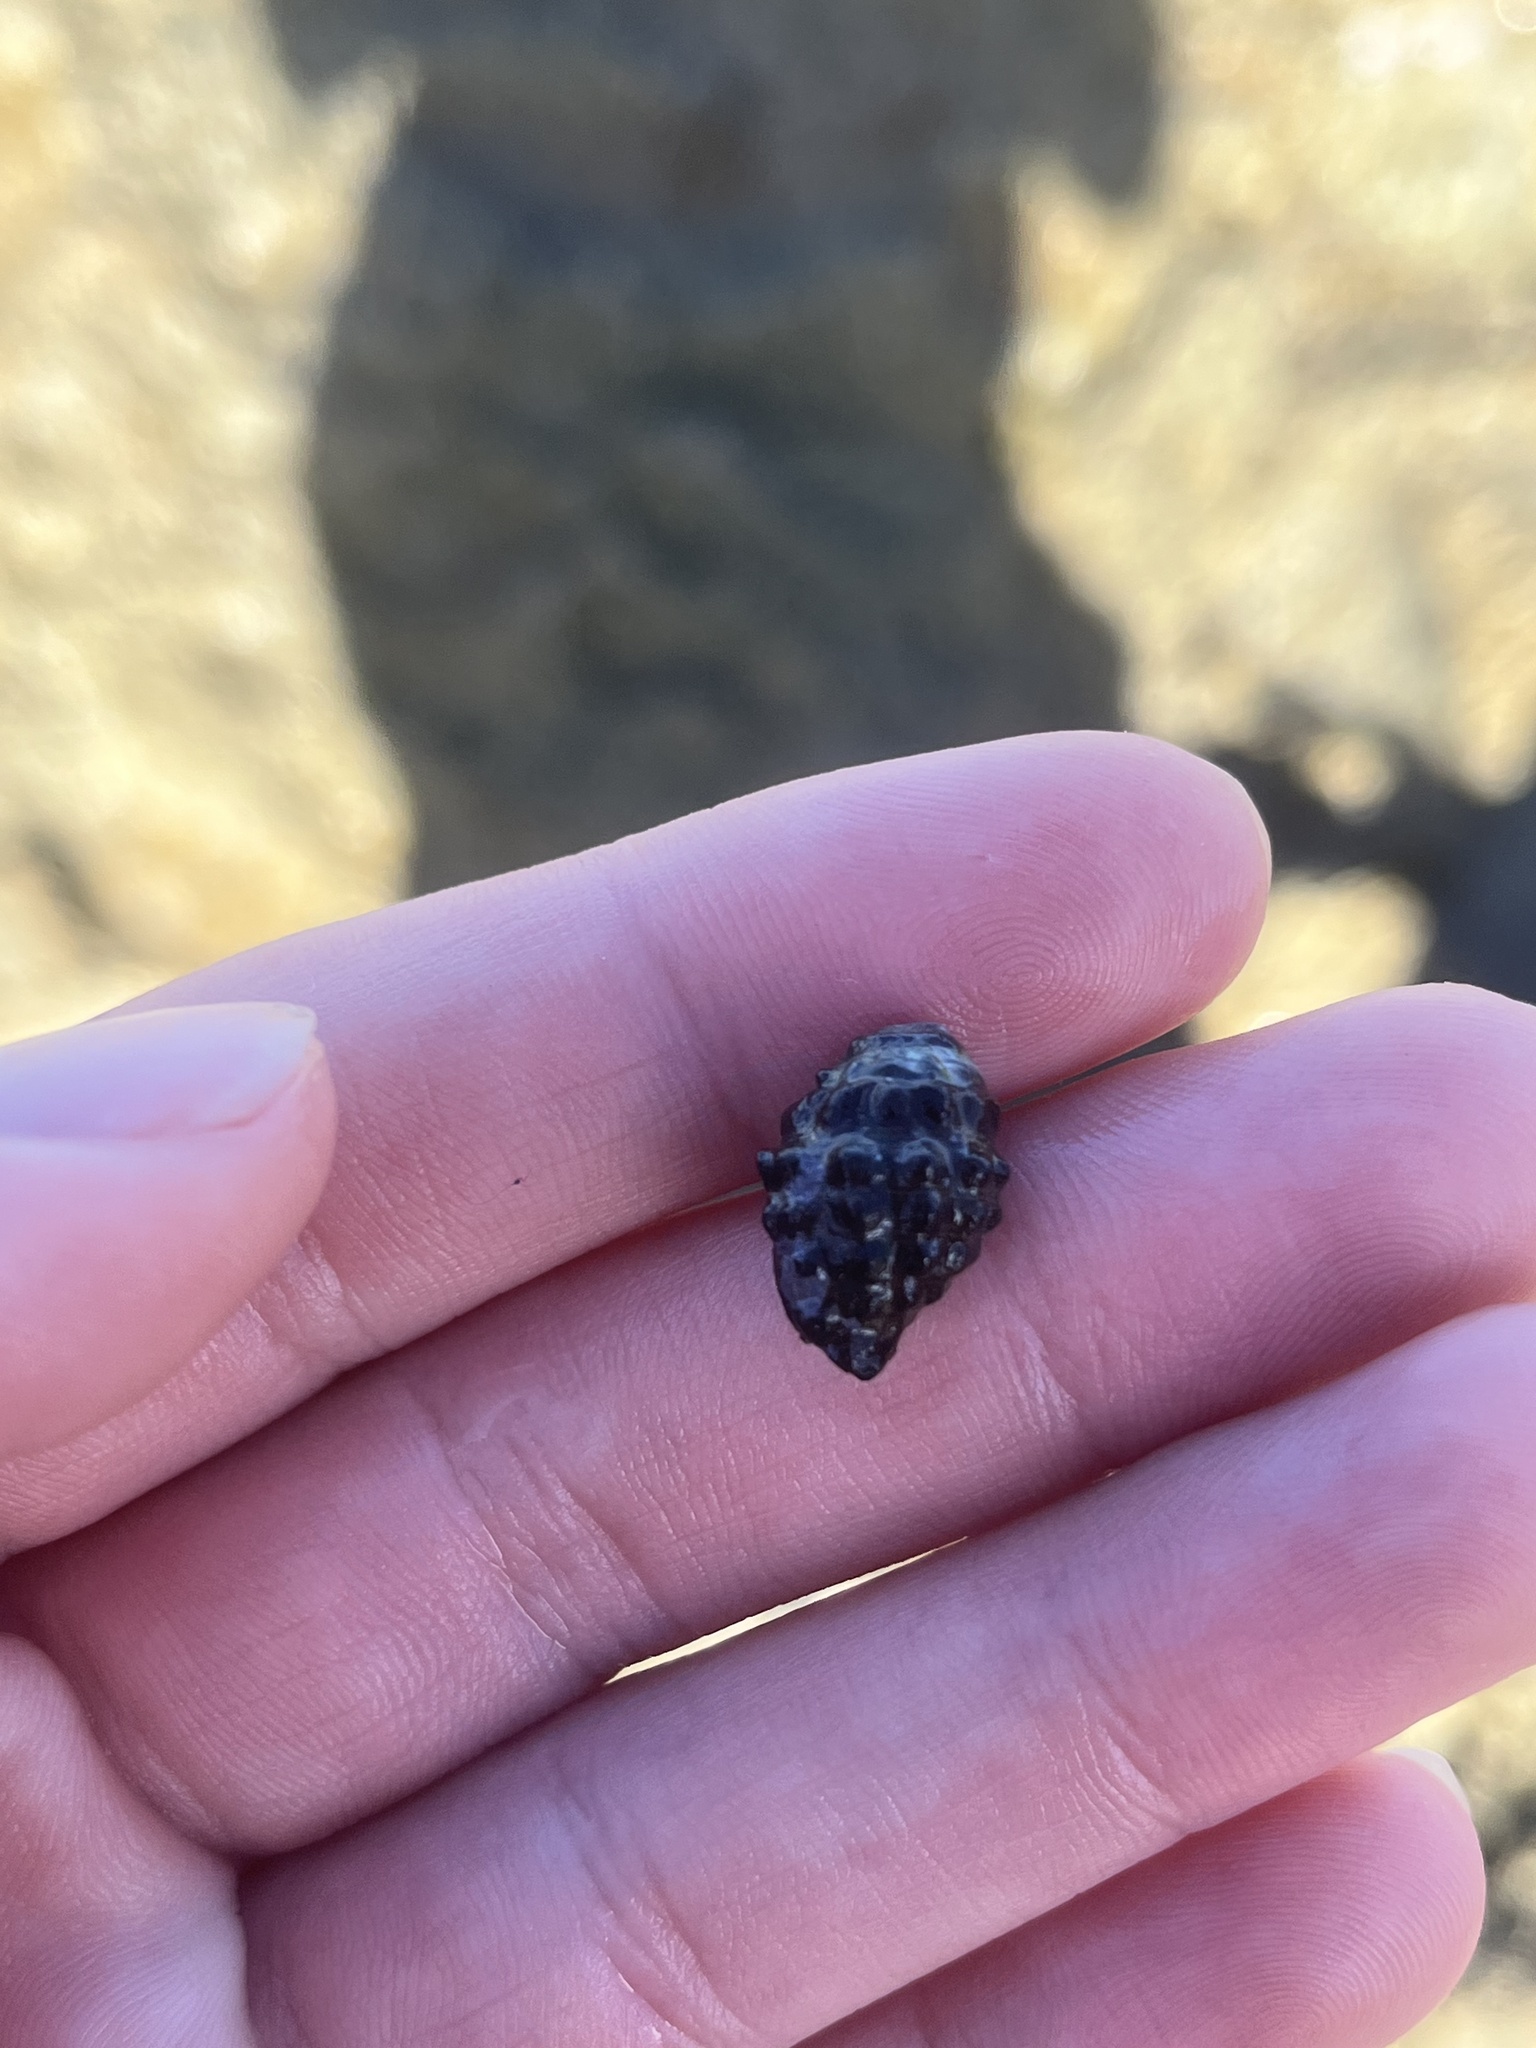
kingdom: Animalia
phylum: Mollusca
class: Gastropoda
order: Neogastropoda
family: Muricidae
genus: Tenguella
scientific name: Tenguella granulata
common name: Granular drupe
